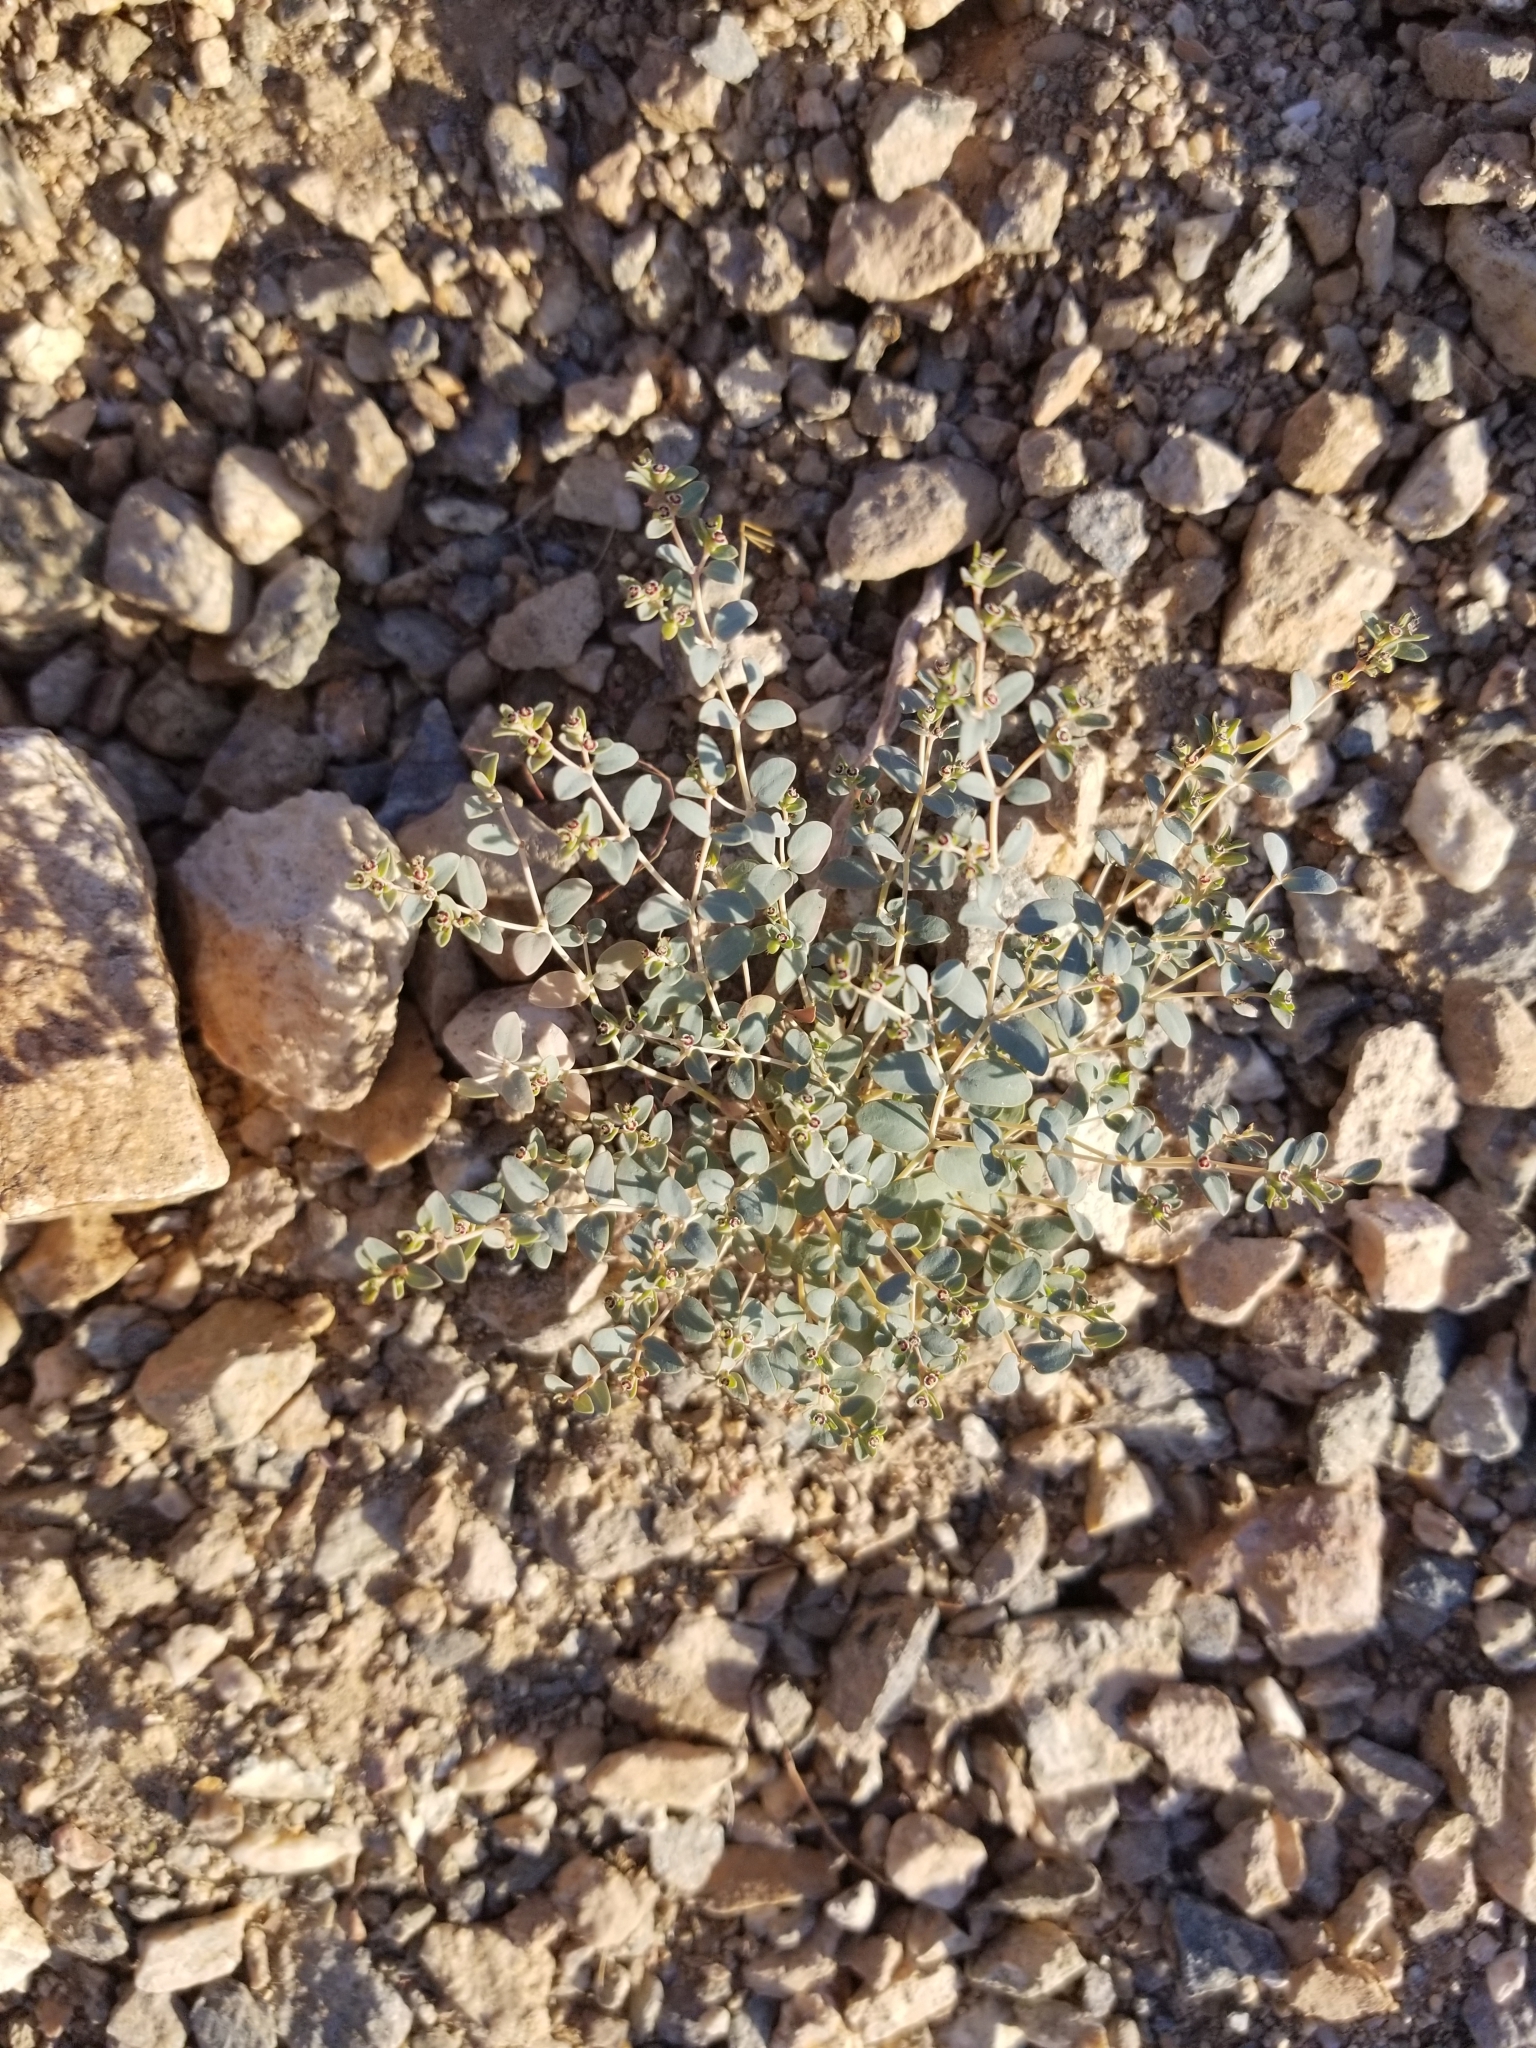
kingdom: Plantae
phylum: Tracheophyta
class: Magnoliopsida
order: Malpighiales
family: Euphorbiaceae
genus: Euphorbia
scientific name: Euphorbia polycarpa
